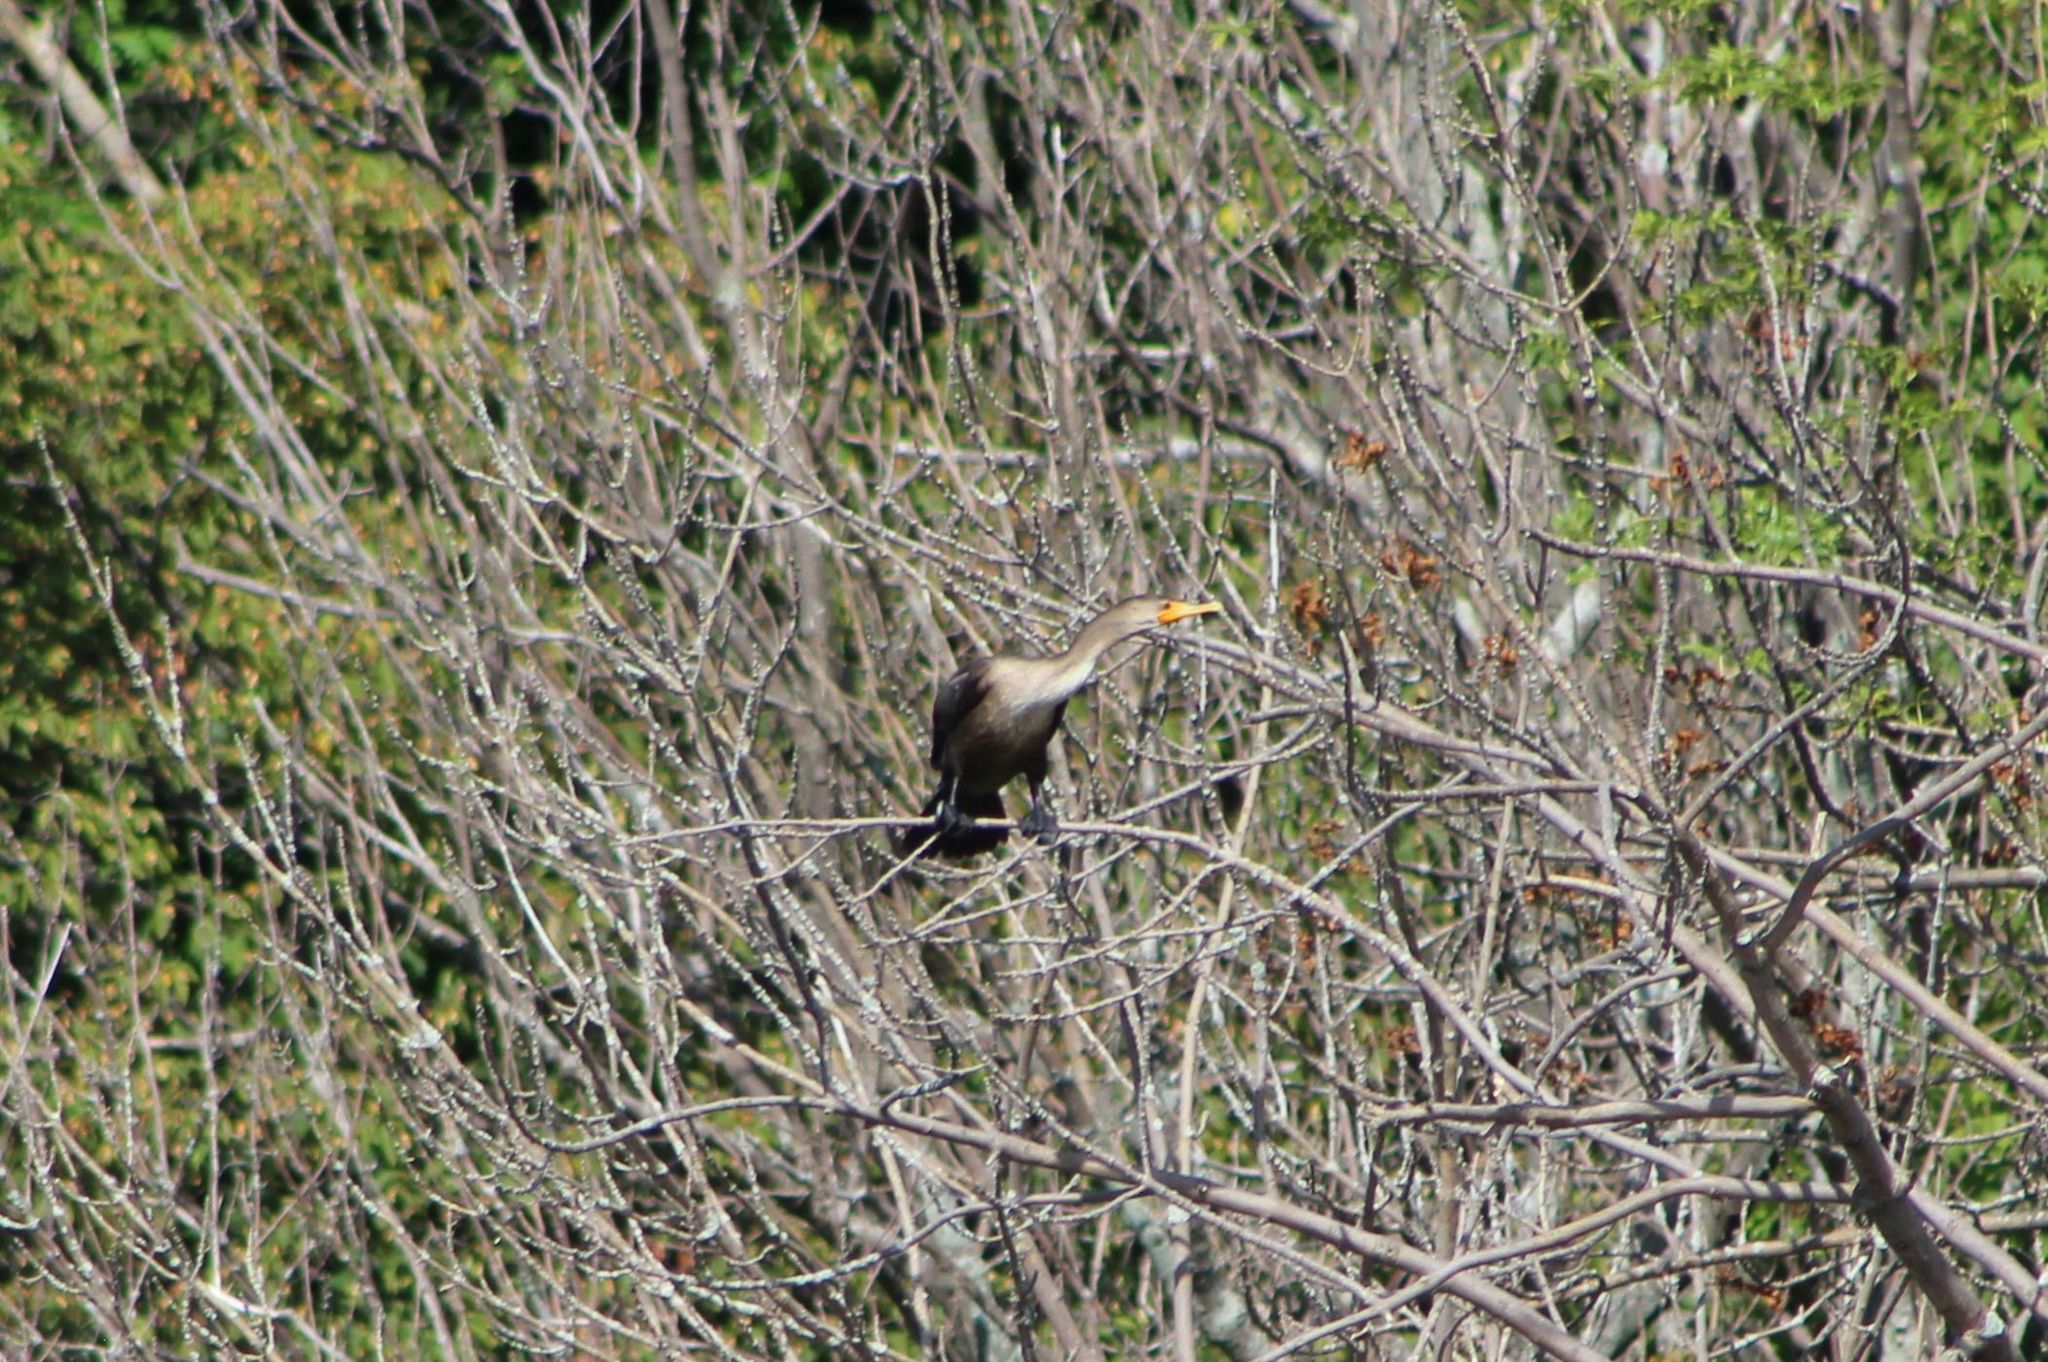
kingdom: Animalia
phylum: Chordata
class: Aves
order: Suliformes
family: Phalacrocoracidae
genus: Phalacrocorax
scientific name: Phalacrocorax auritus
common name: Double-crested cormorant
